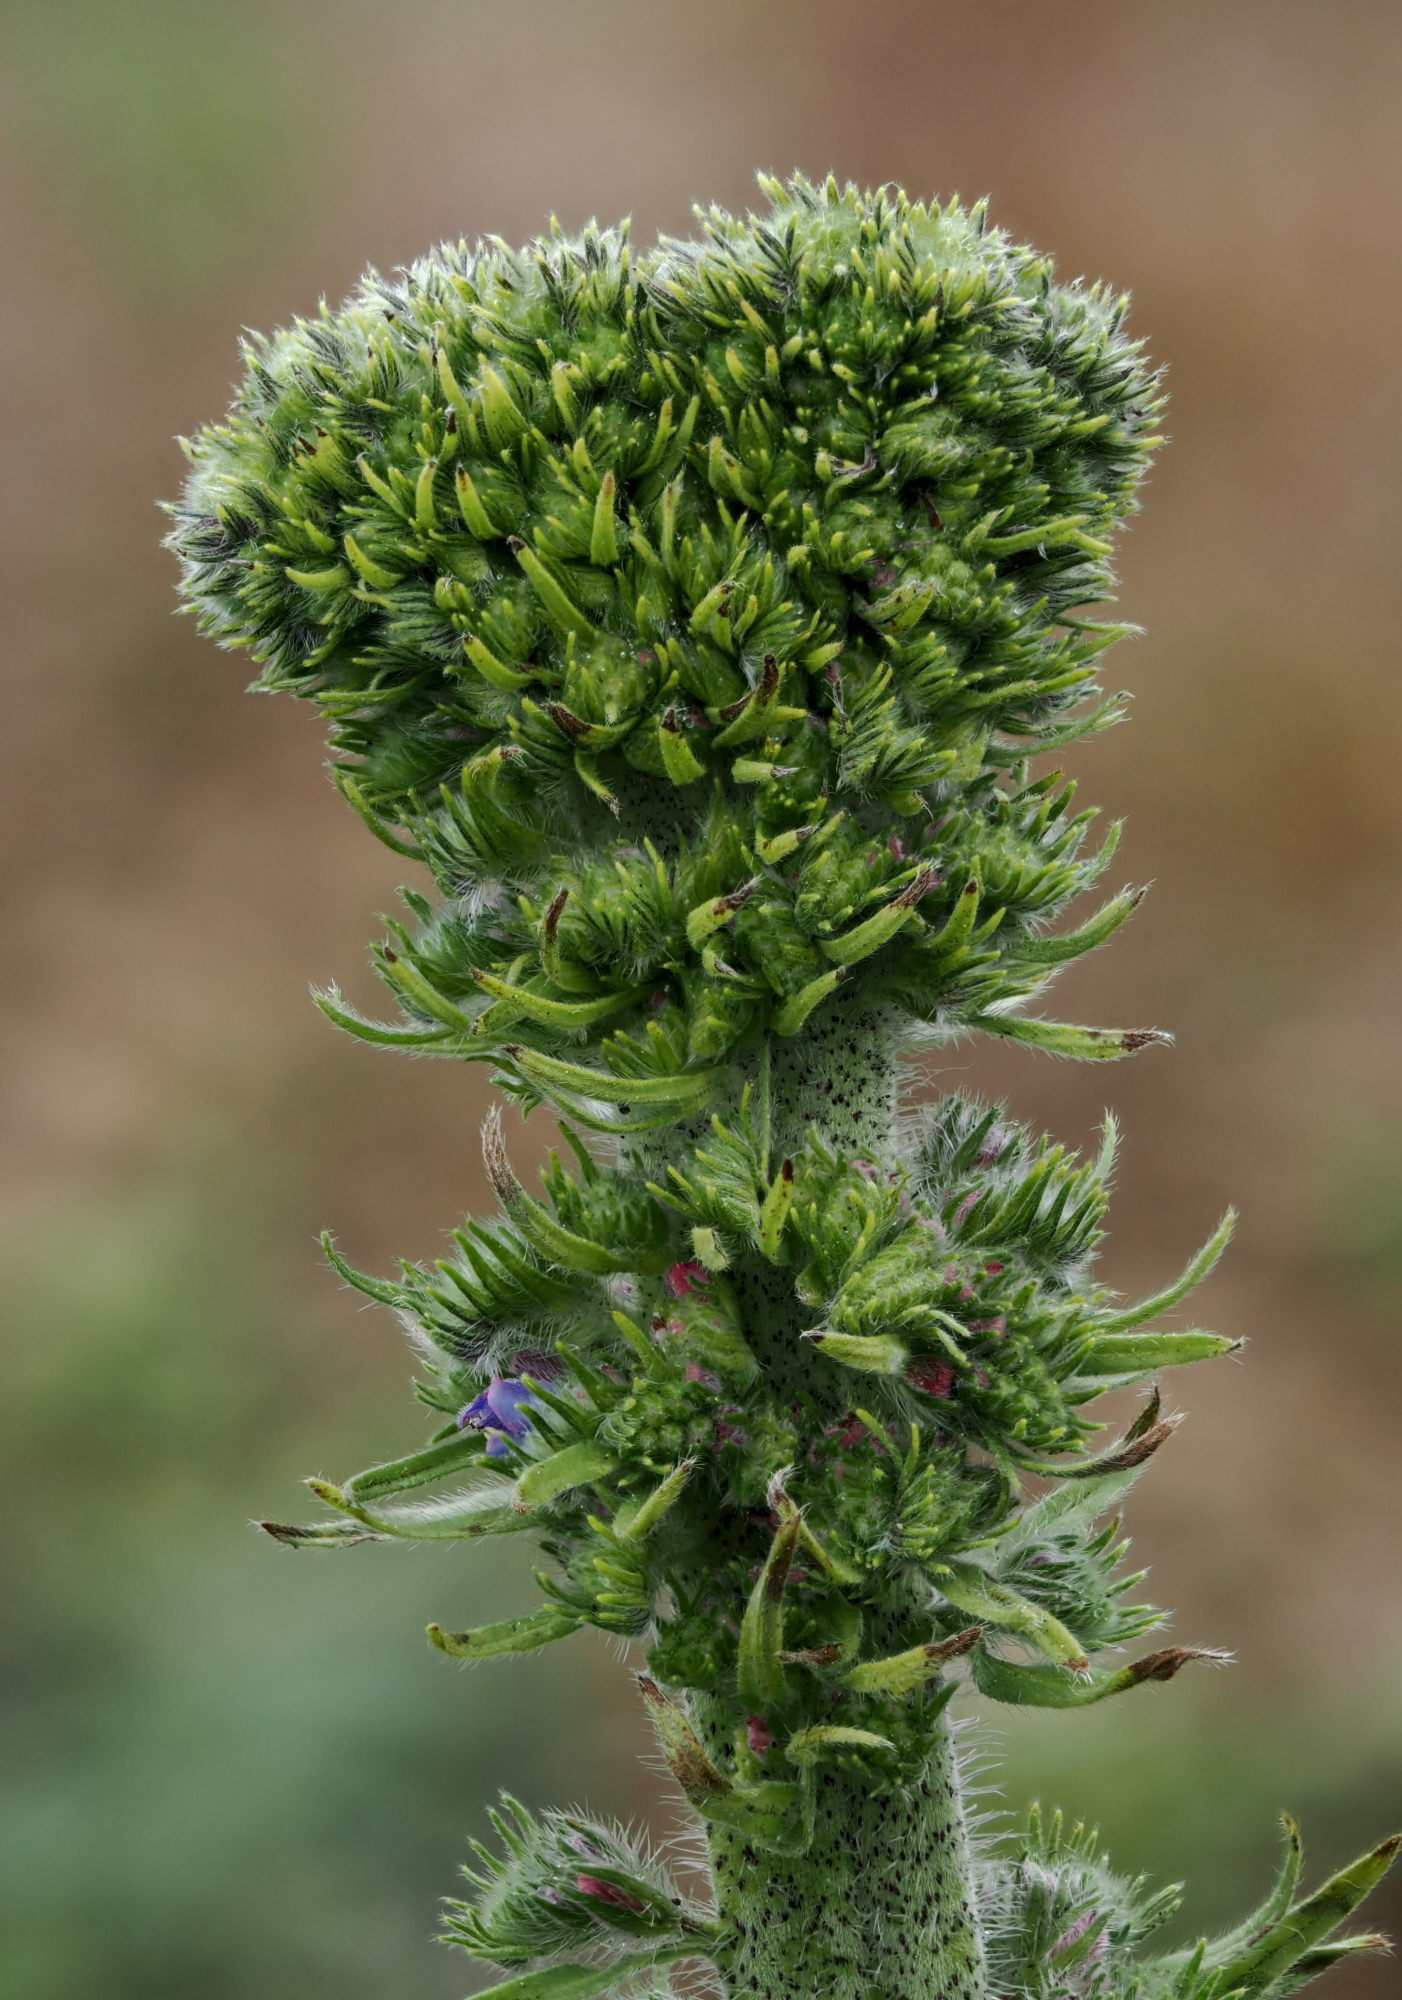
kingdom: Animalia
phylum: Arthropoda
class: Arachnida
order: Trombidiformes
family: Eriophyidae
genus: Aceria
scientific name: Aceria echii
